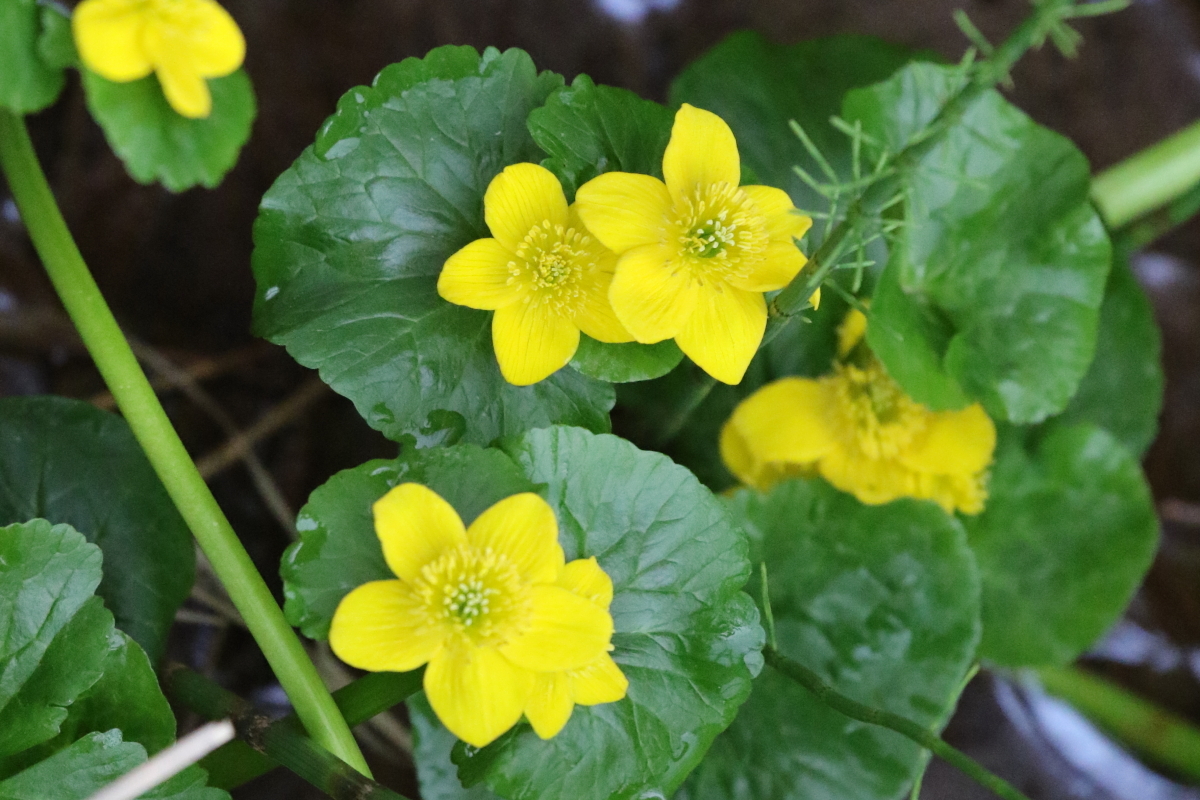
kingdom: Plantae
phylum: Tracheophyta
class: Magnoliopsida
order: Ranunculales
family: Ranunculaceae
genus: Caltha
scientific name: Caltha palustris
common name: Marsh marigold
